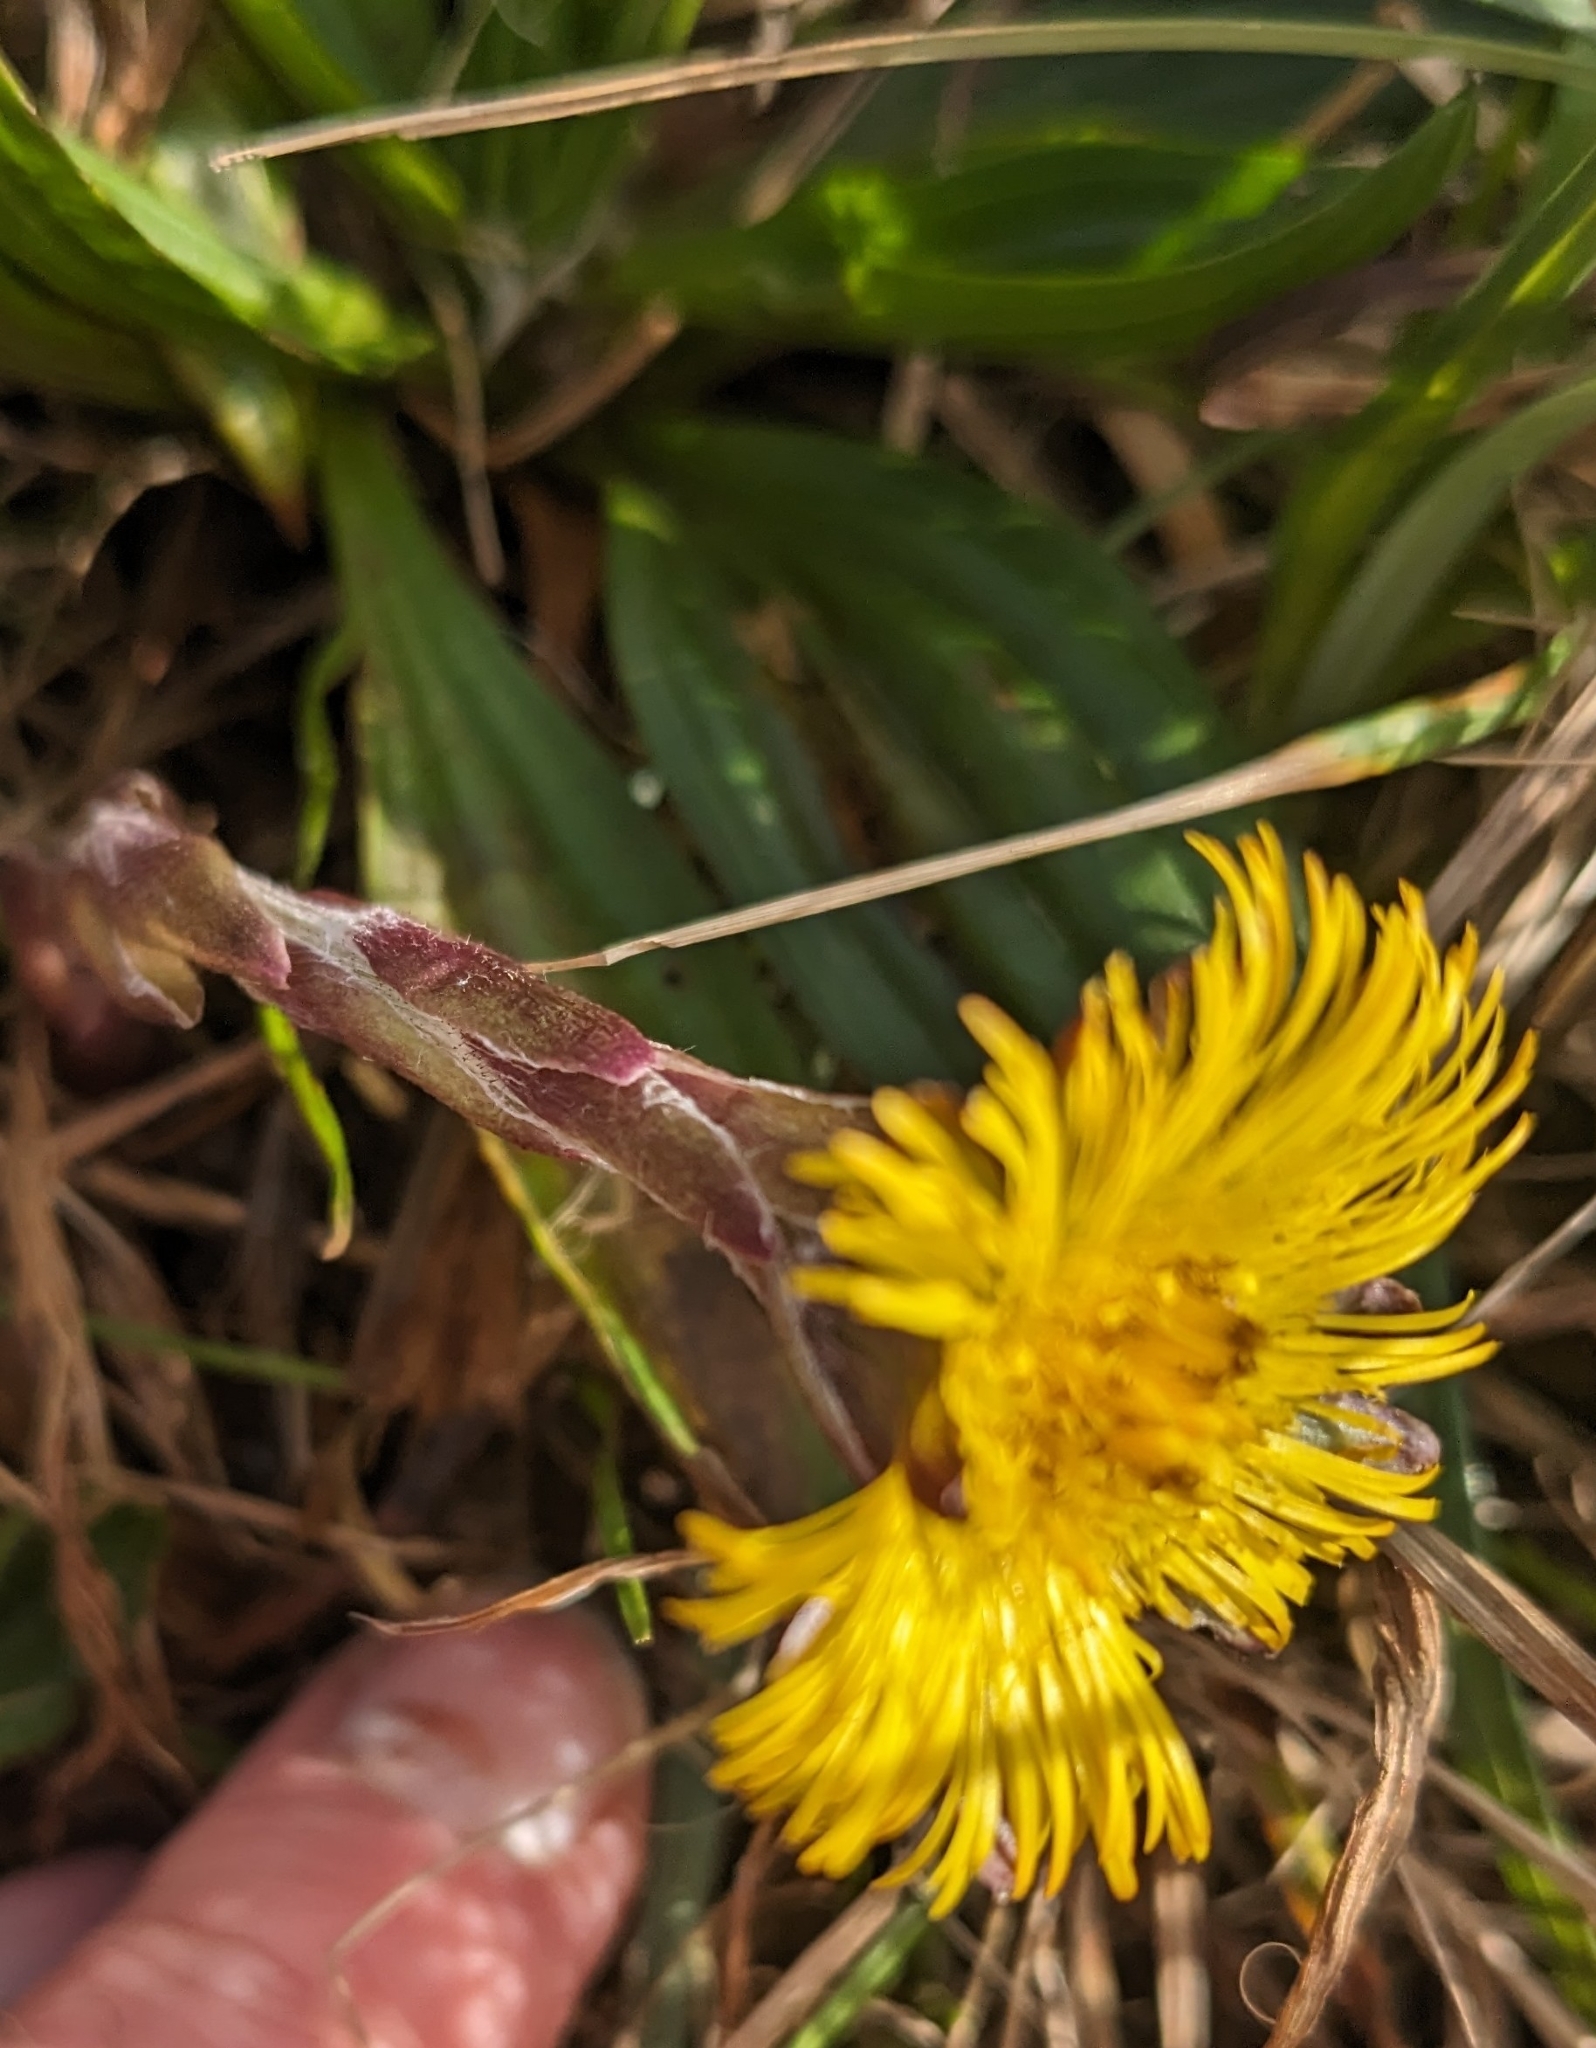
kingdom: Plantae
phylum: Tracheophyta
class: Magnoliopsida
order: Asterales
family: Asteraceae
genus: Tussilago
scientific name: Tussilago farfara
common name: Coltsfoot
